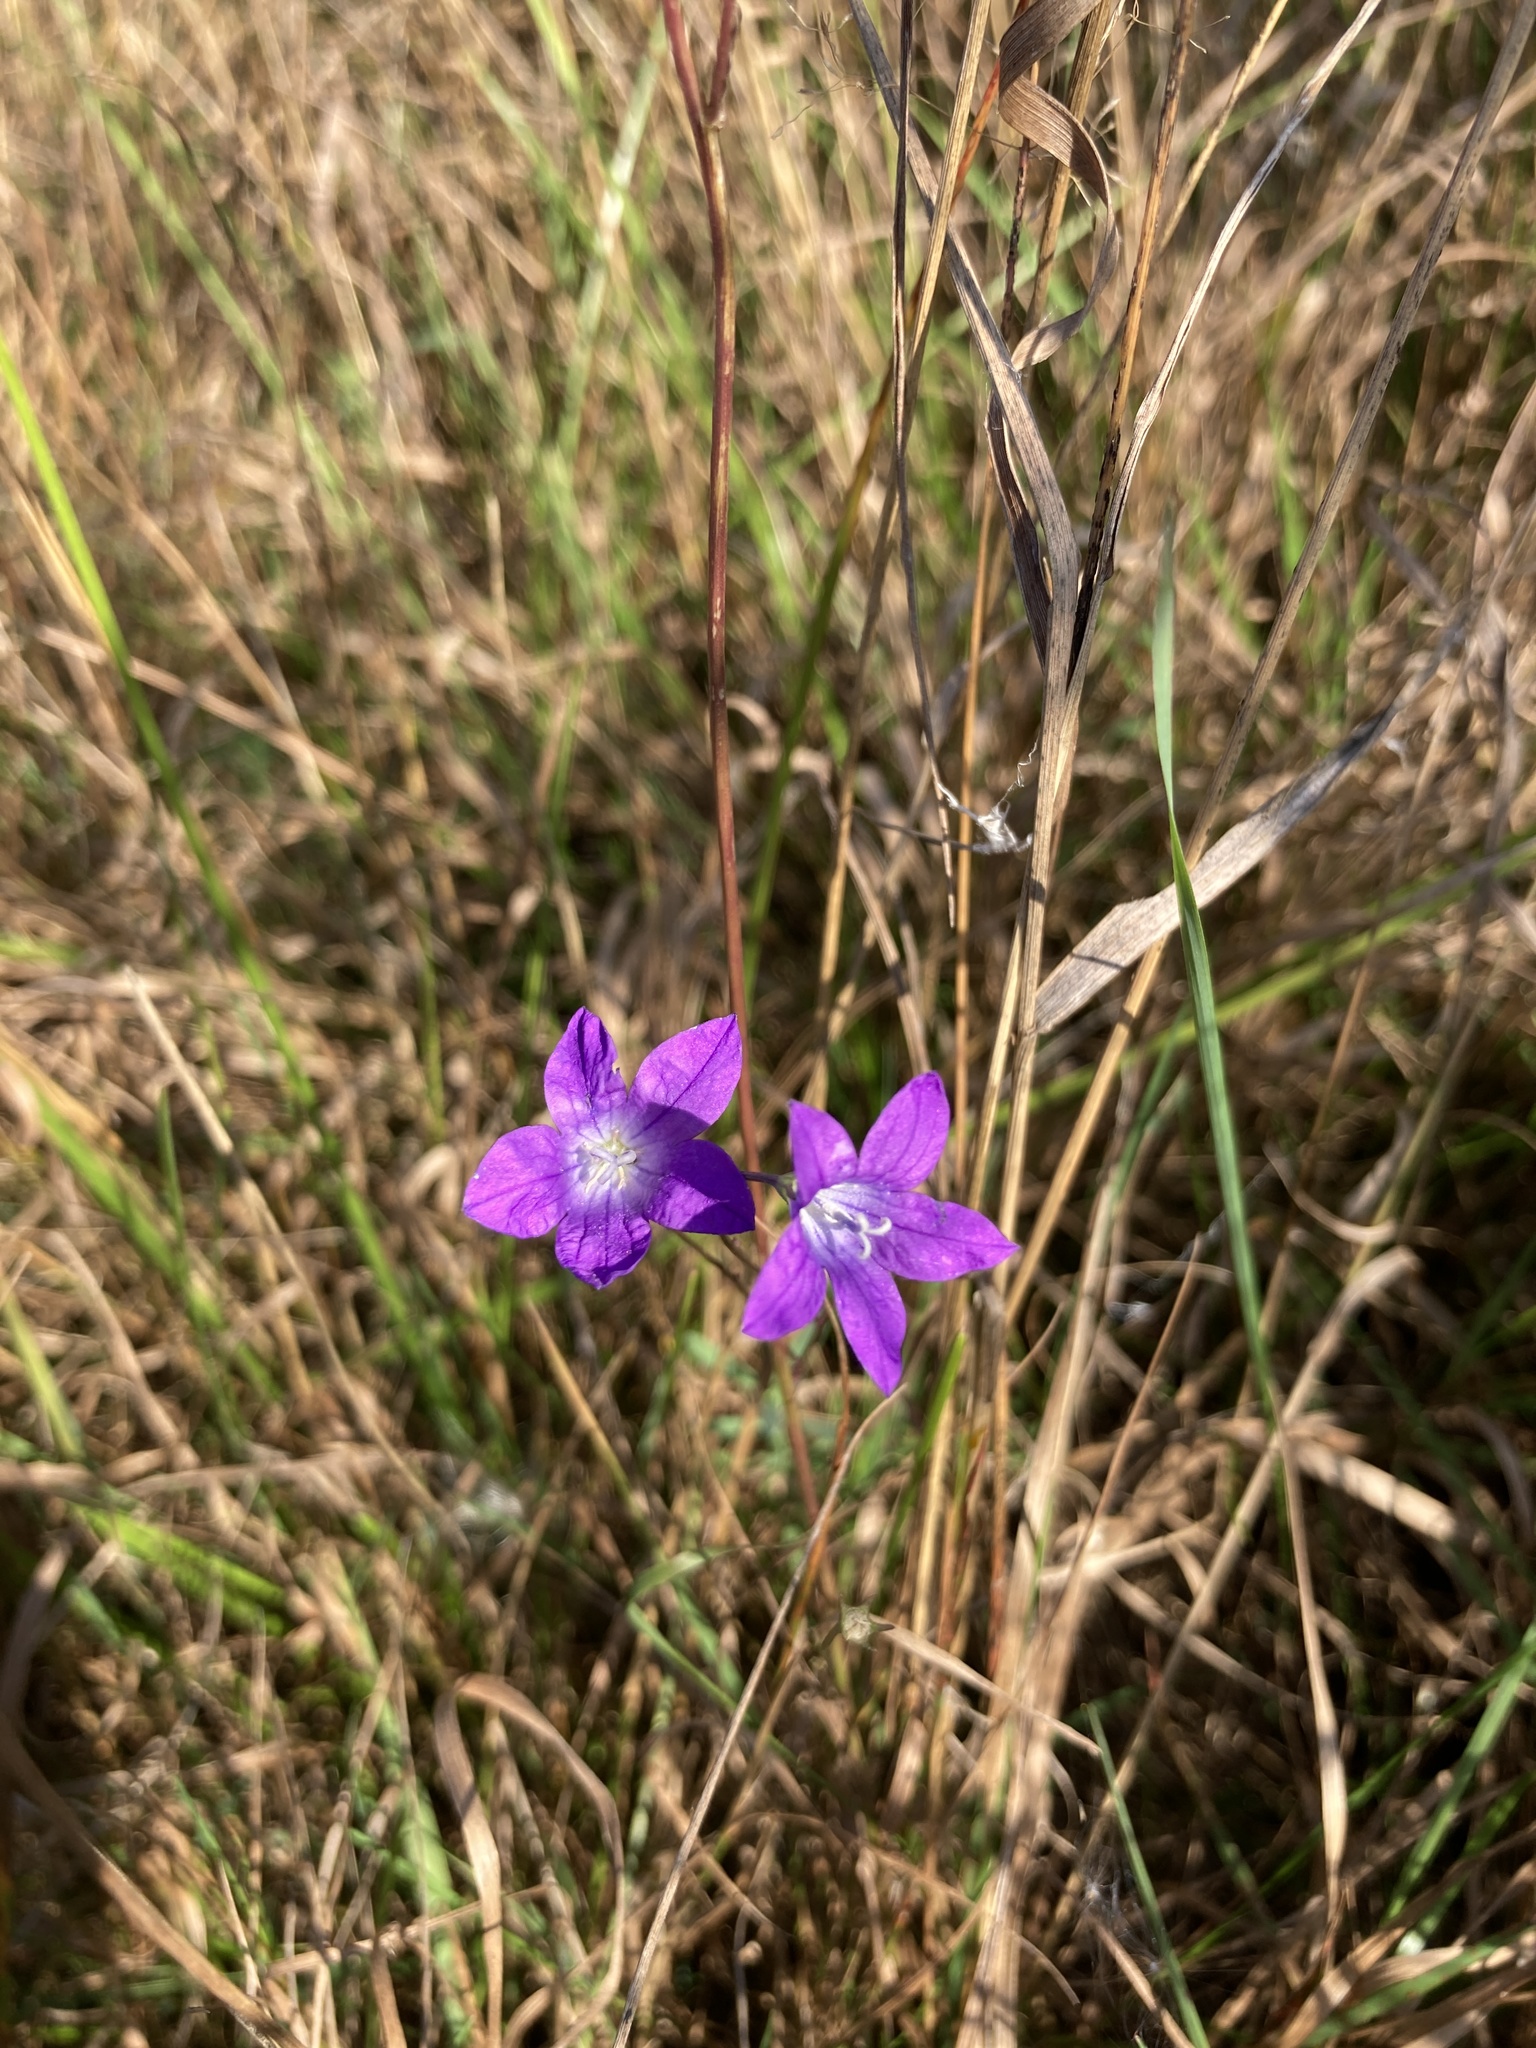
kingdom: Plantae
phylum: Tracheophyta
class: Magnoliopsida
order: Asterales
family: Campanulaceae
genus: Campanula
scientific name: Campanula patula
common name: Spreading bellflower
